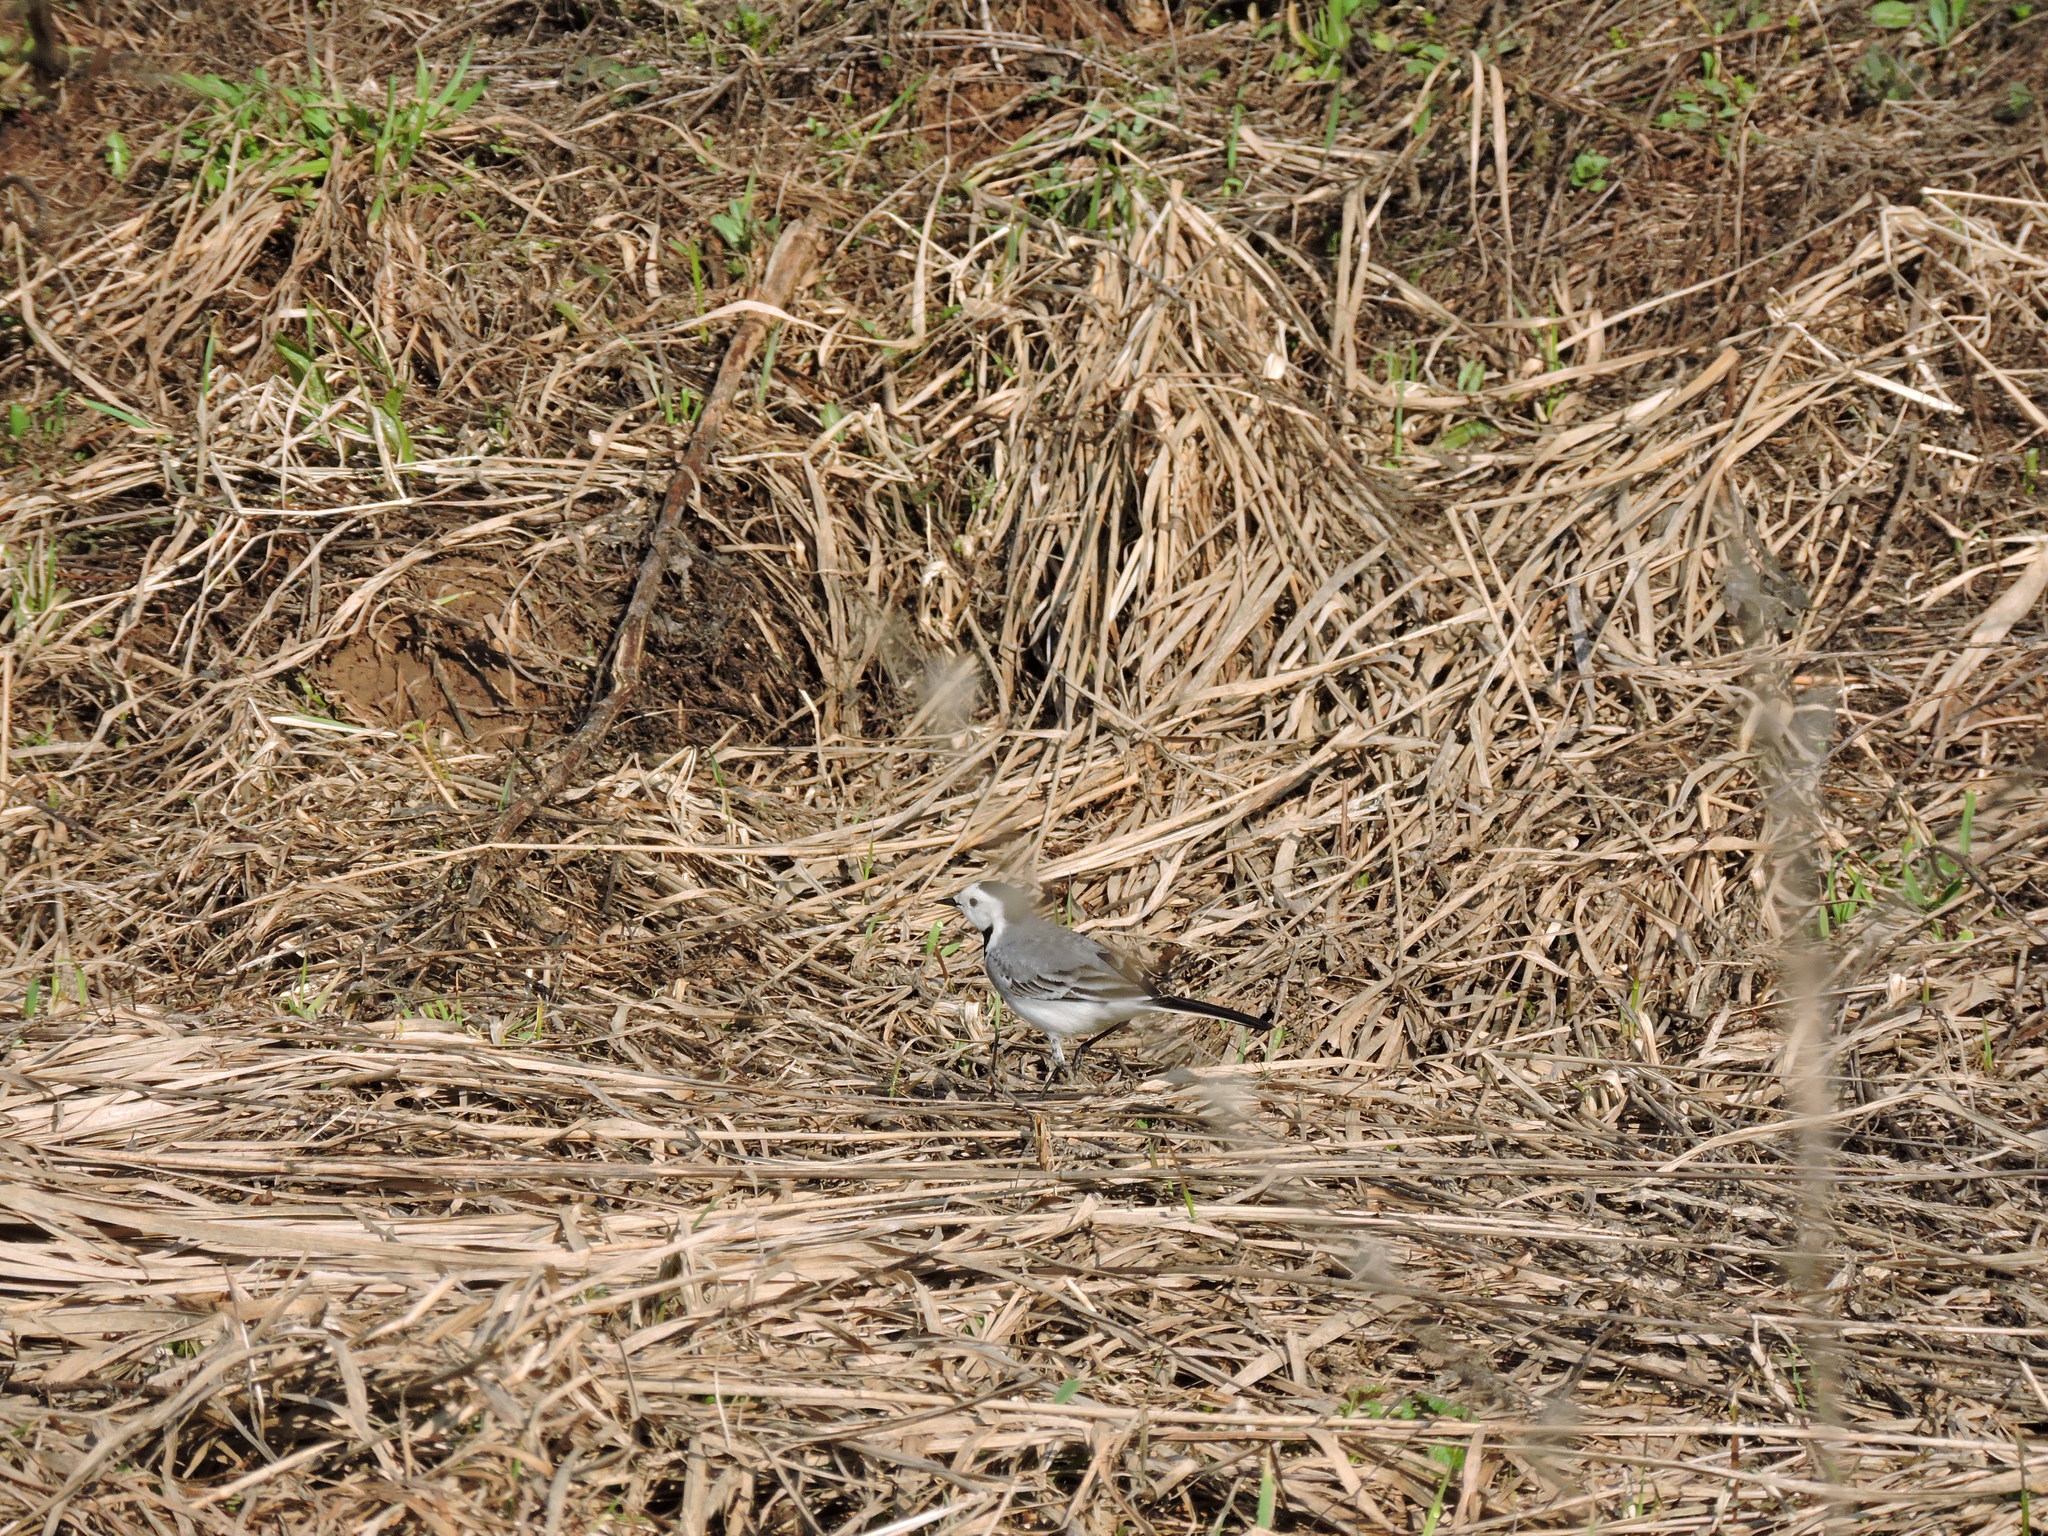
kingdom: Animalia
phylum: Chordata
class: Aves
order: Passeriformes
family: Motacillidae
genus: Motacilla
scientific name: Motacilla alba
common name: White wagtail
